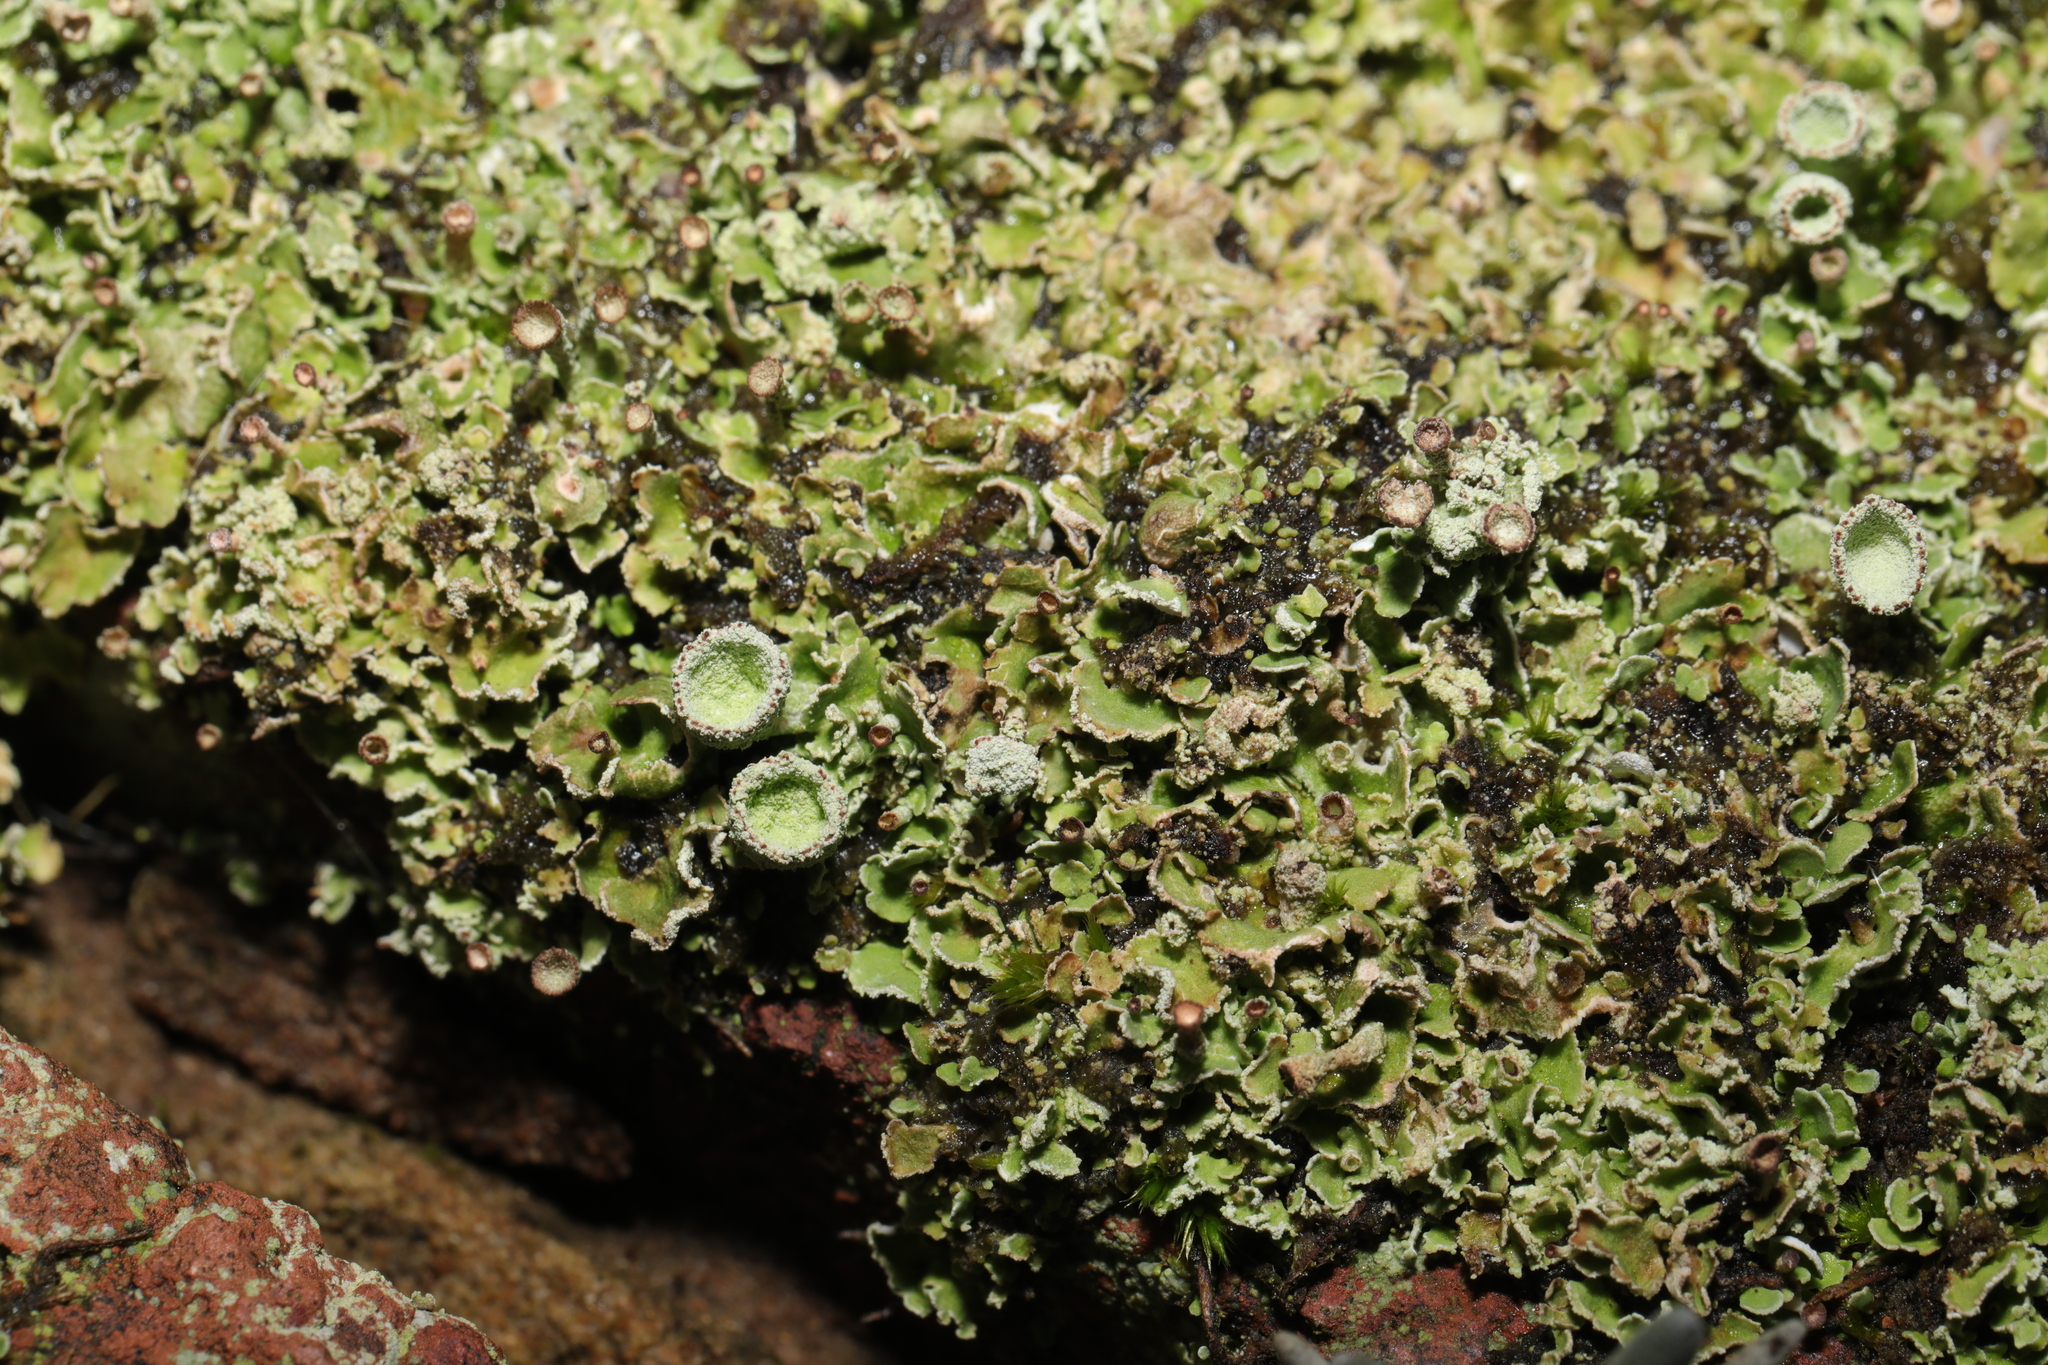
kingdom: Fungi
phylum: Ascomycota
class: Lecanoromycetes
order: Lecanorales
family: Cladoniaceae
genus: Cladonia
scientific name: Cladonia
